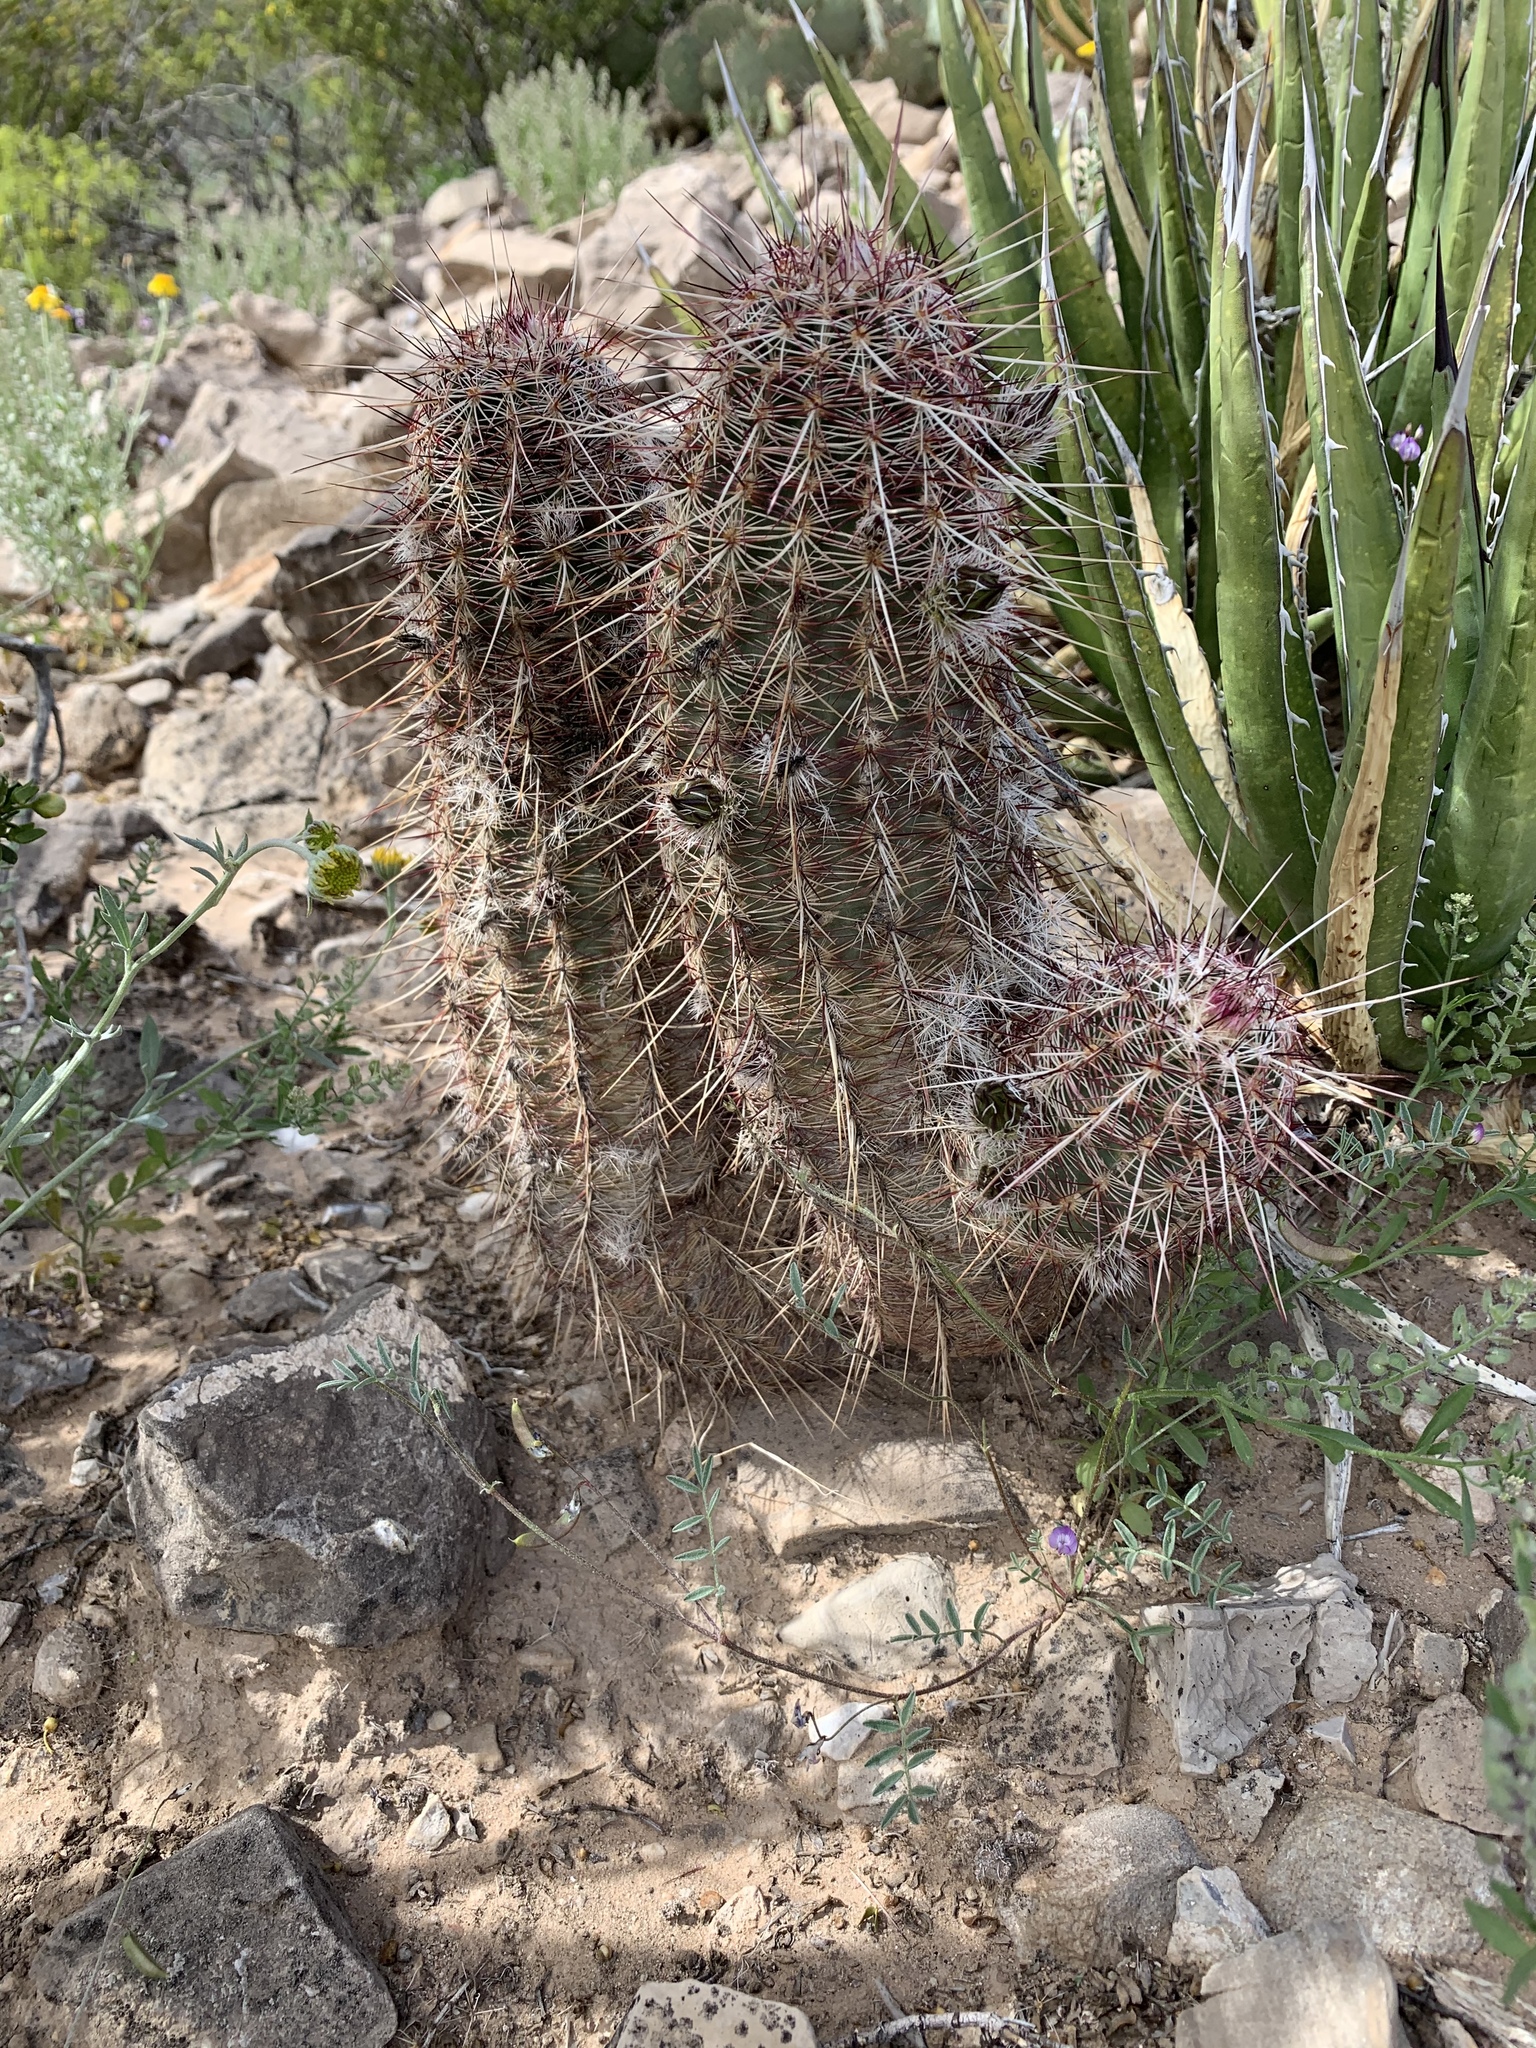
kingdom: Plantae
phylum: Tracheophyta
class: Magnoliopsida
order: Caryophyllales
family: Cactaceae
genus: Echinocereus
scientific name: Echinocereus viridiflorus
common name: Nylon hedgehog cactus
